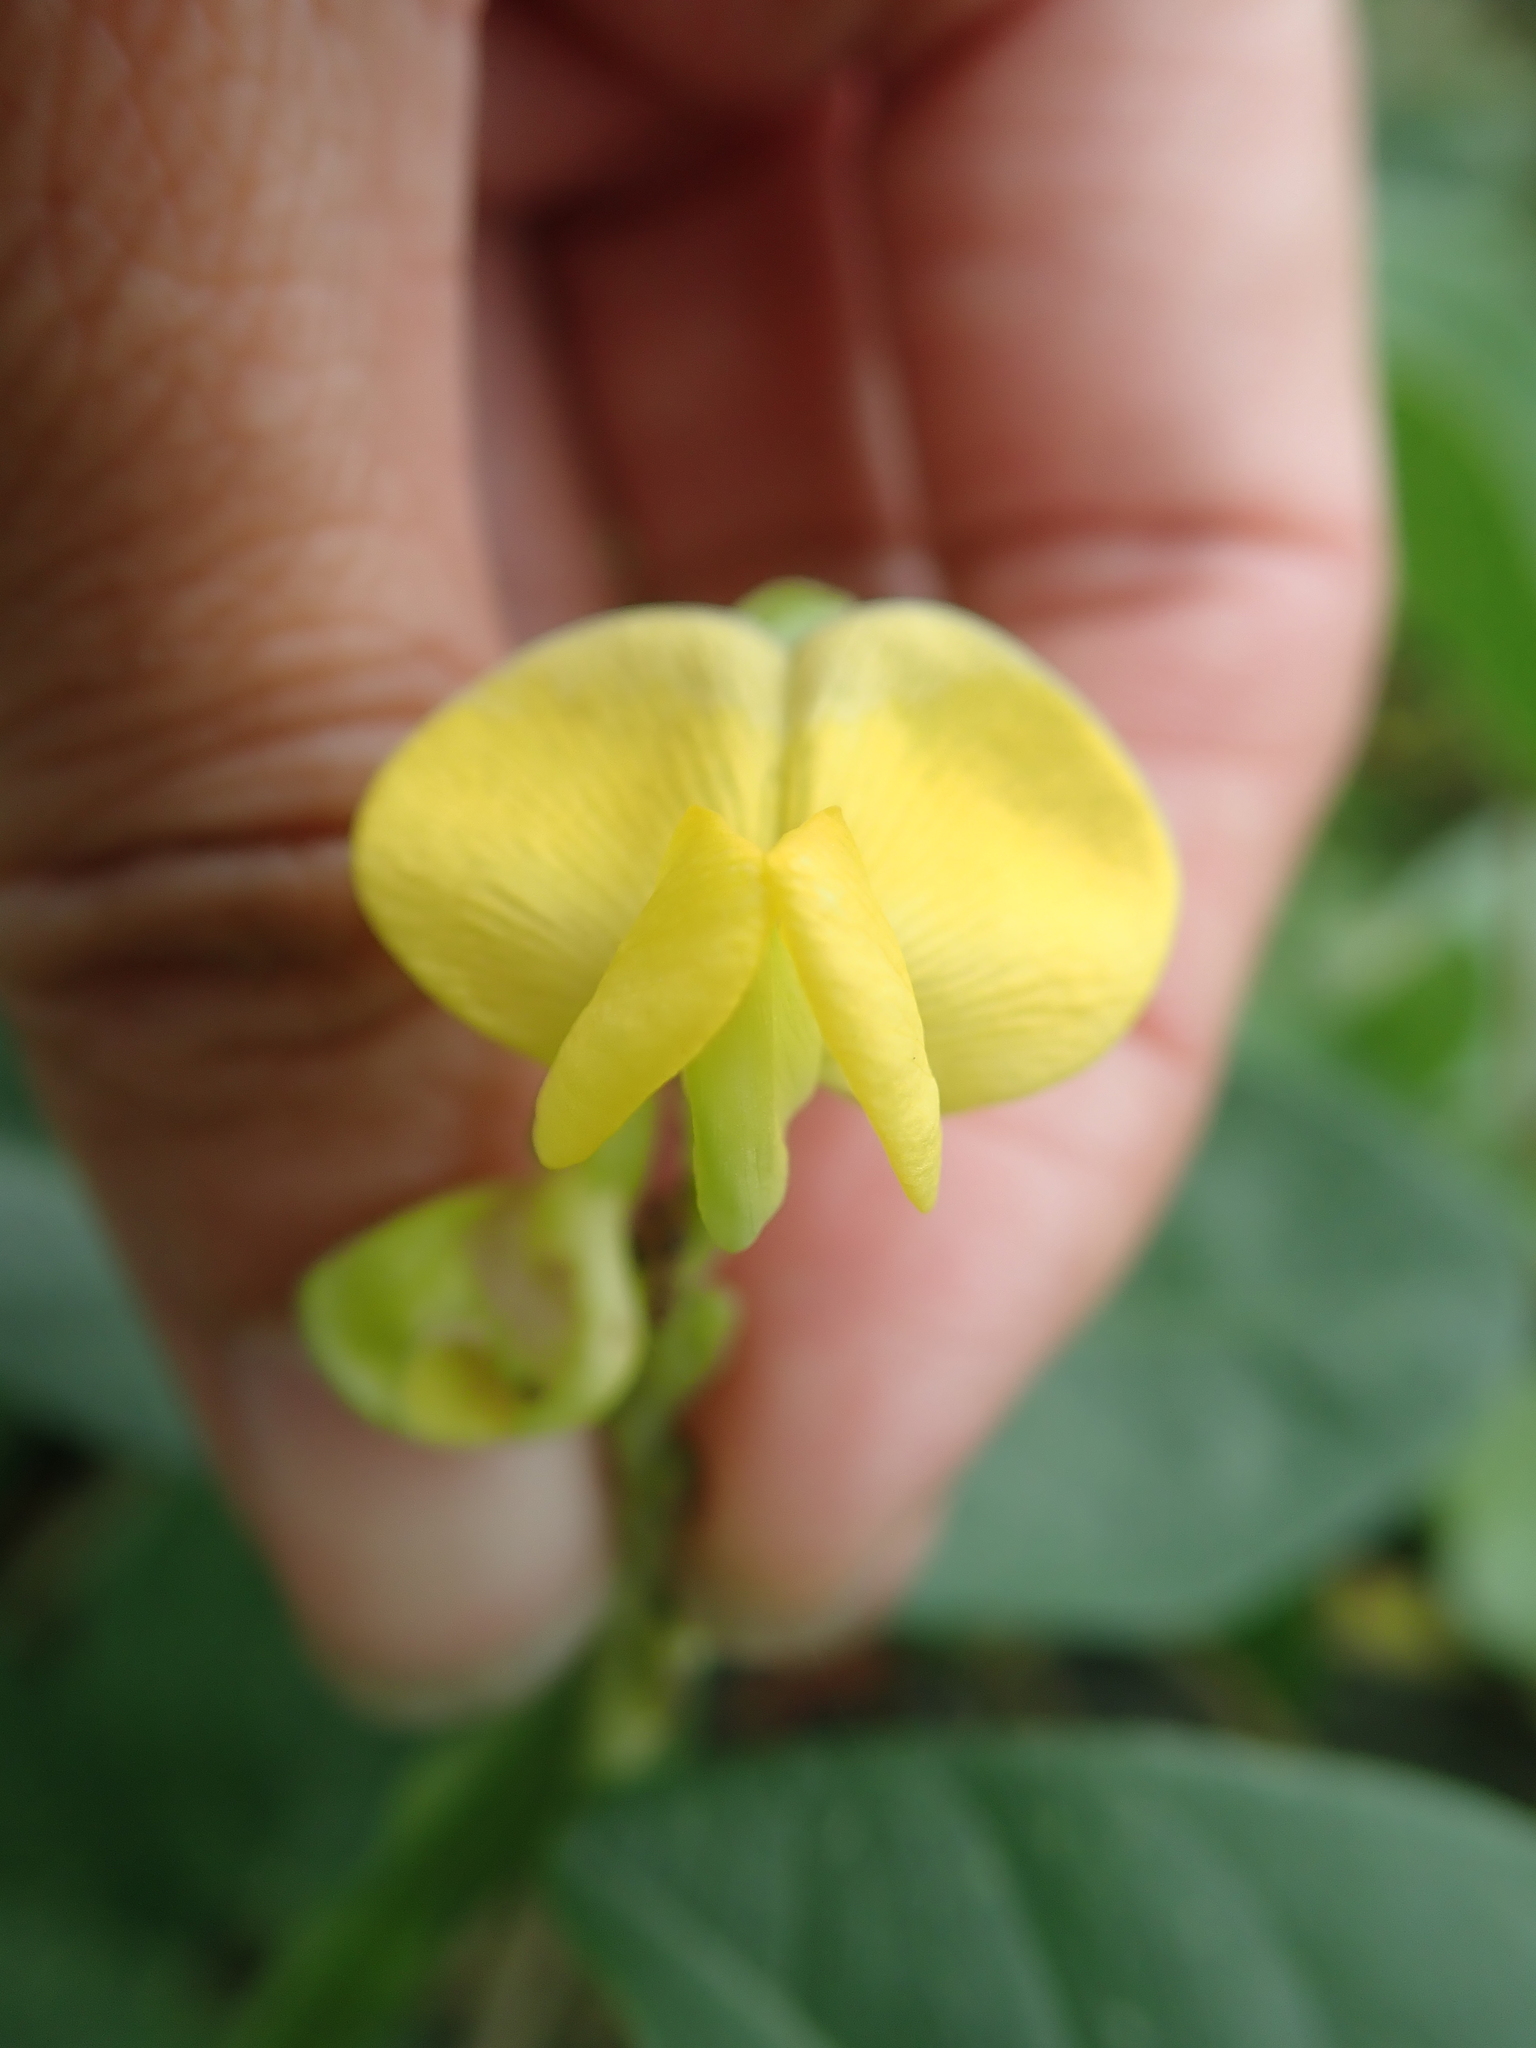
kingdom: Plantae
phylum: Tracheophyta
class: Magnoliopsida
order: Fabales
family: Fabaceae
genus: Vigna
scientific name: Vigna marina
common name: Dune-bean
